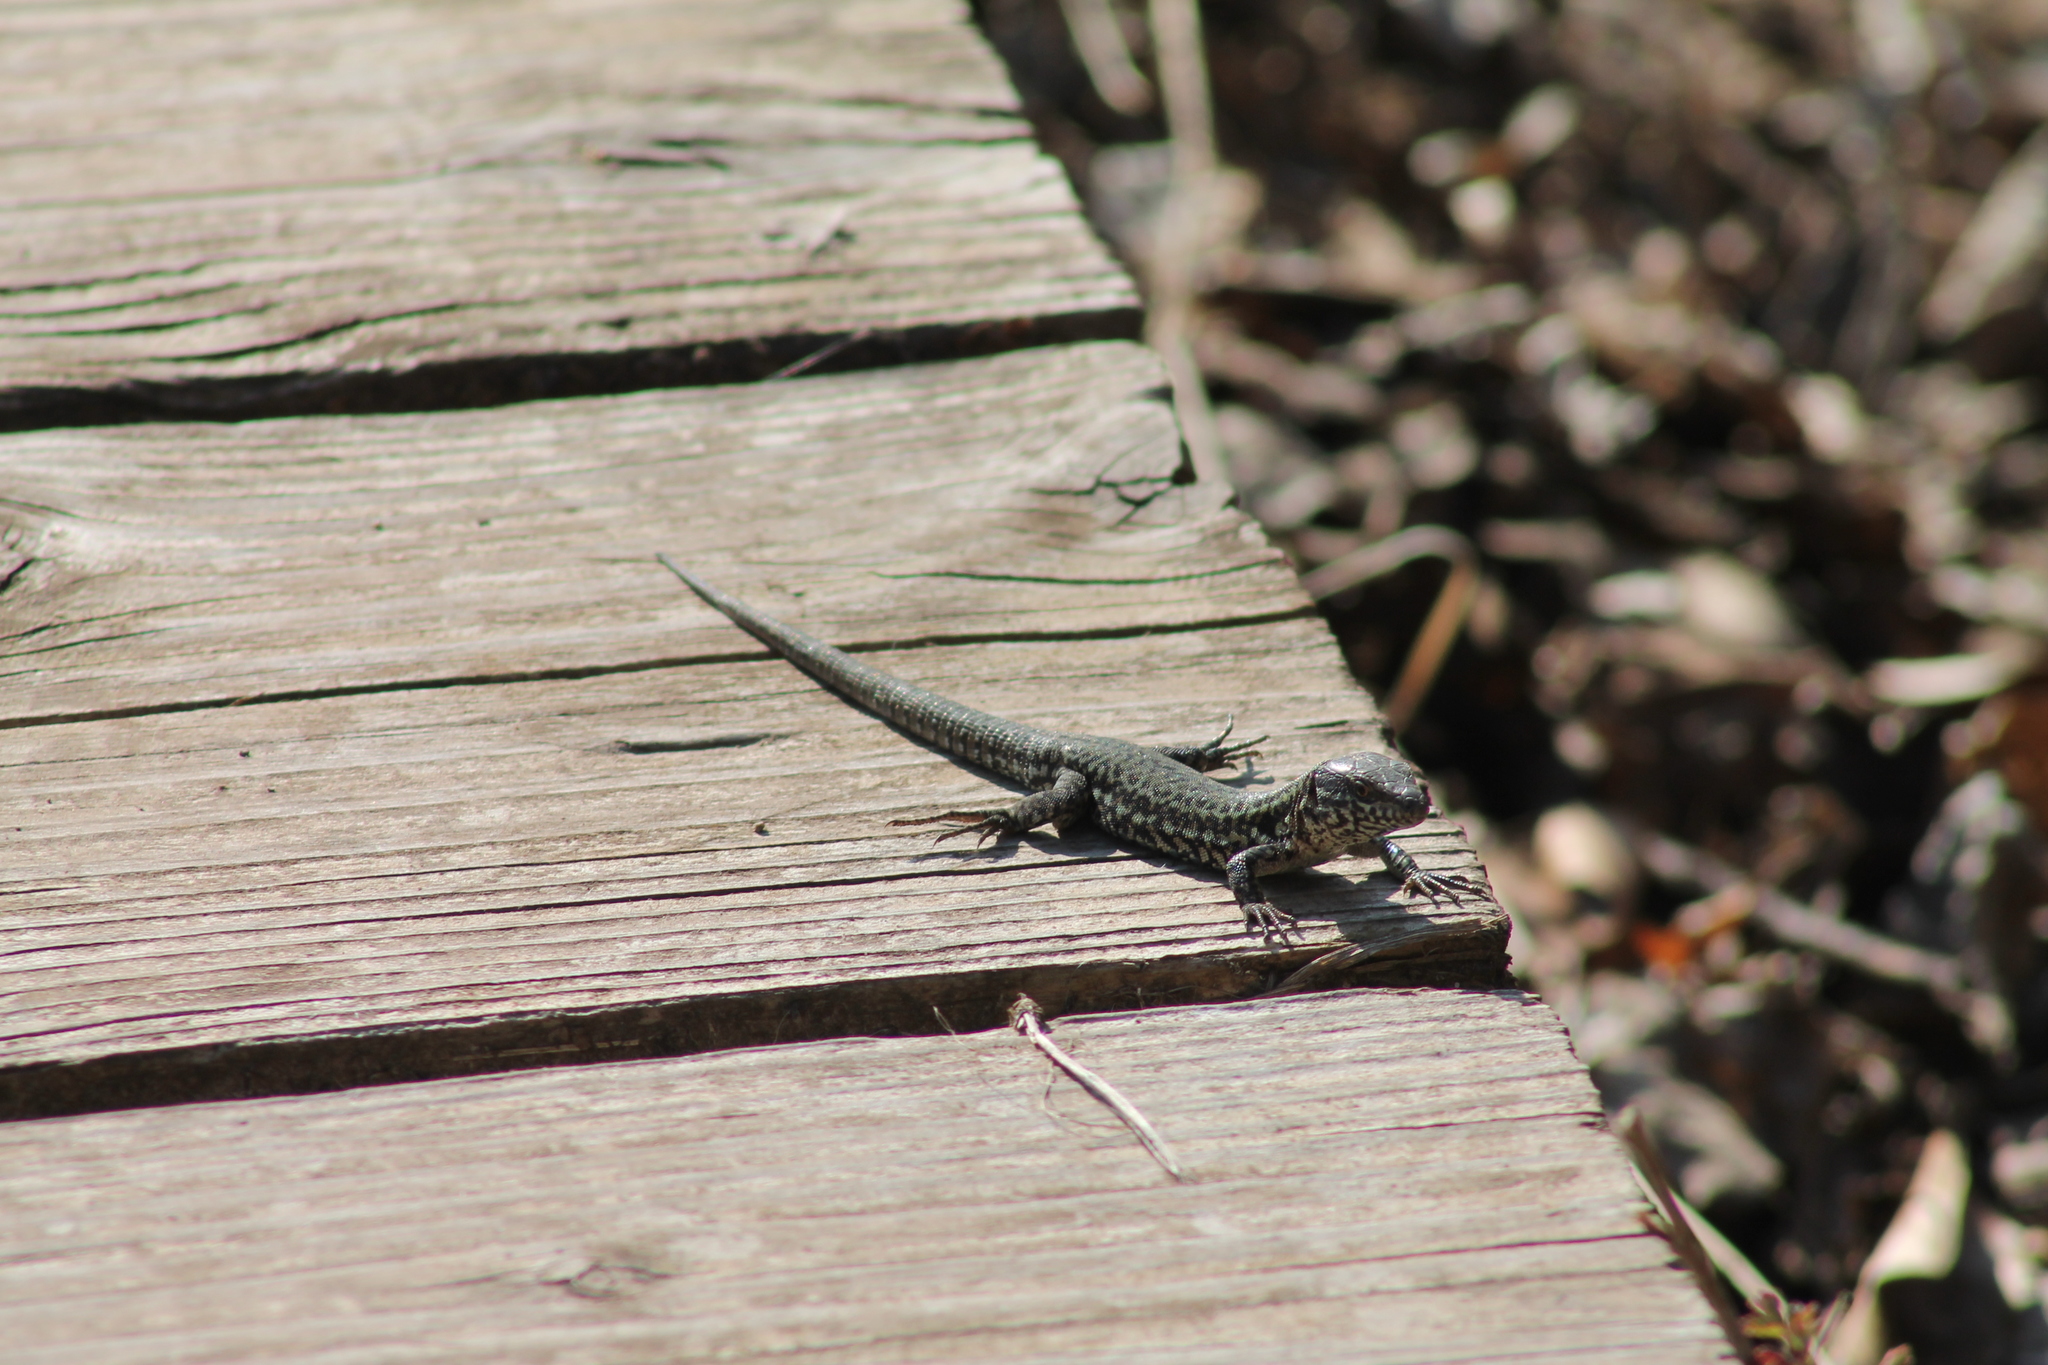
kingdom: Animalia
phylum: Chordata
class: Squamata
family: Lacertidae
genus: Podarcis
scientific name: Podarcis muralis
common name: Common wall lizard
